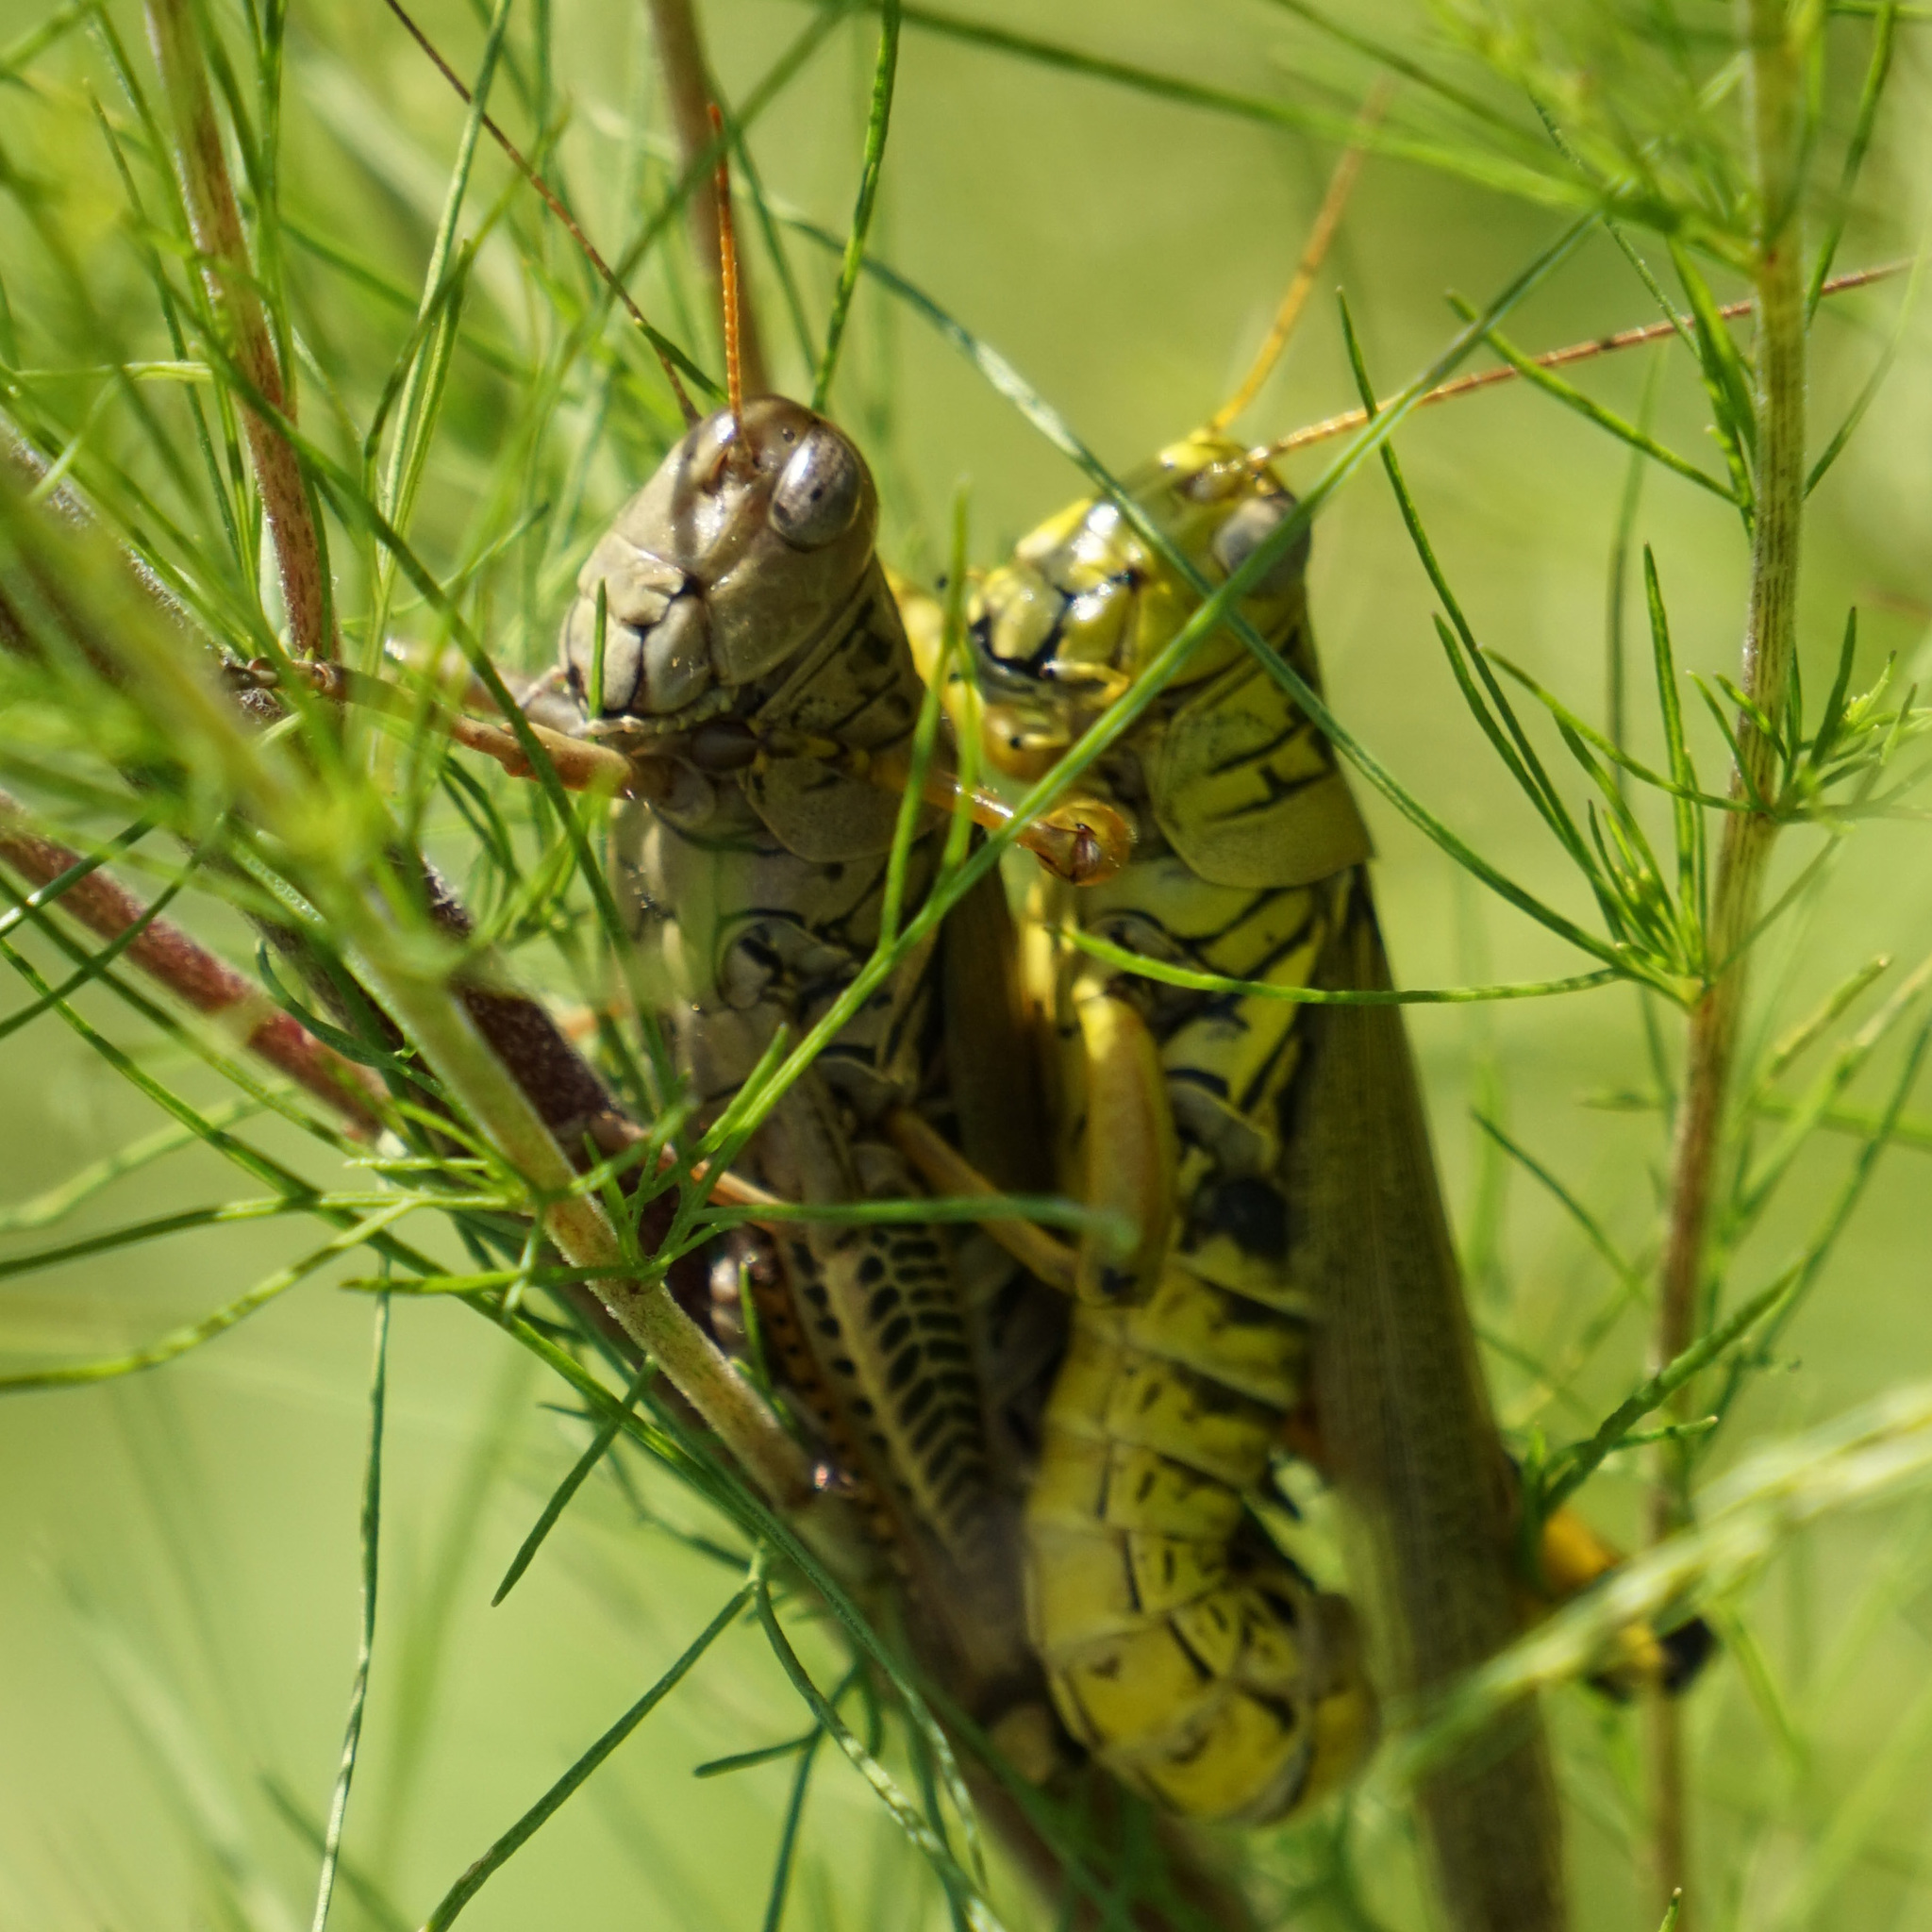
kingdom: Animalia
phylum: Arthropoda
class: Insecta
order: Orthoptera
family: Acrididae
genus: Melanoplus
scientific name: Melanoplus differentialis
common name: Differential grasshopper
